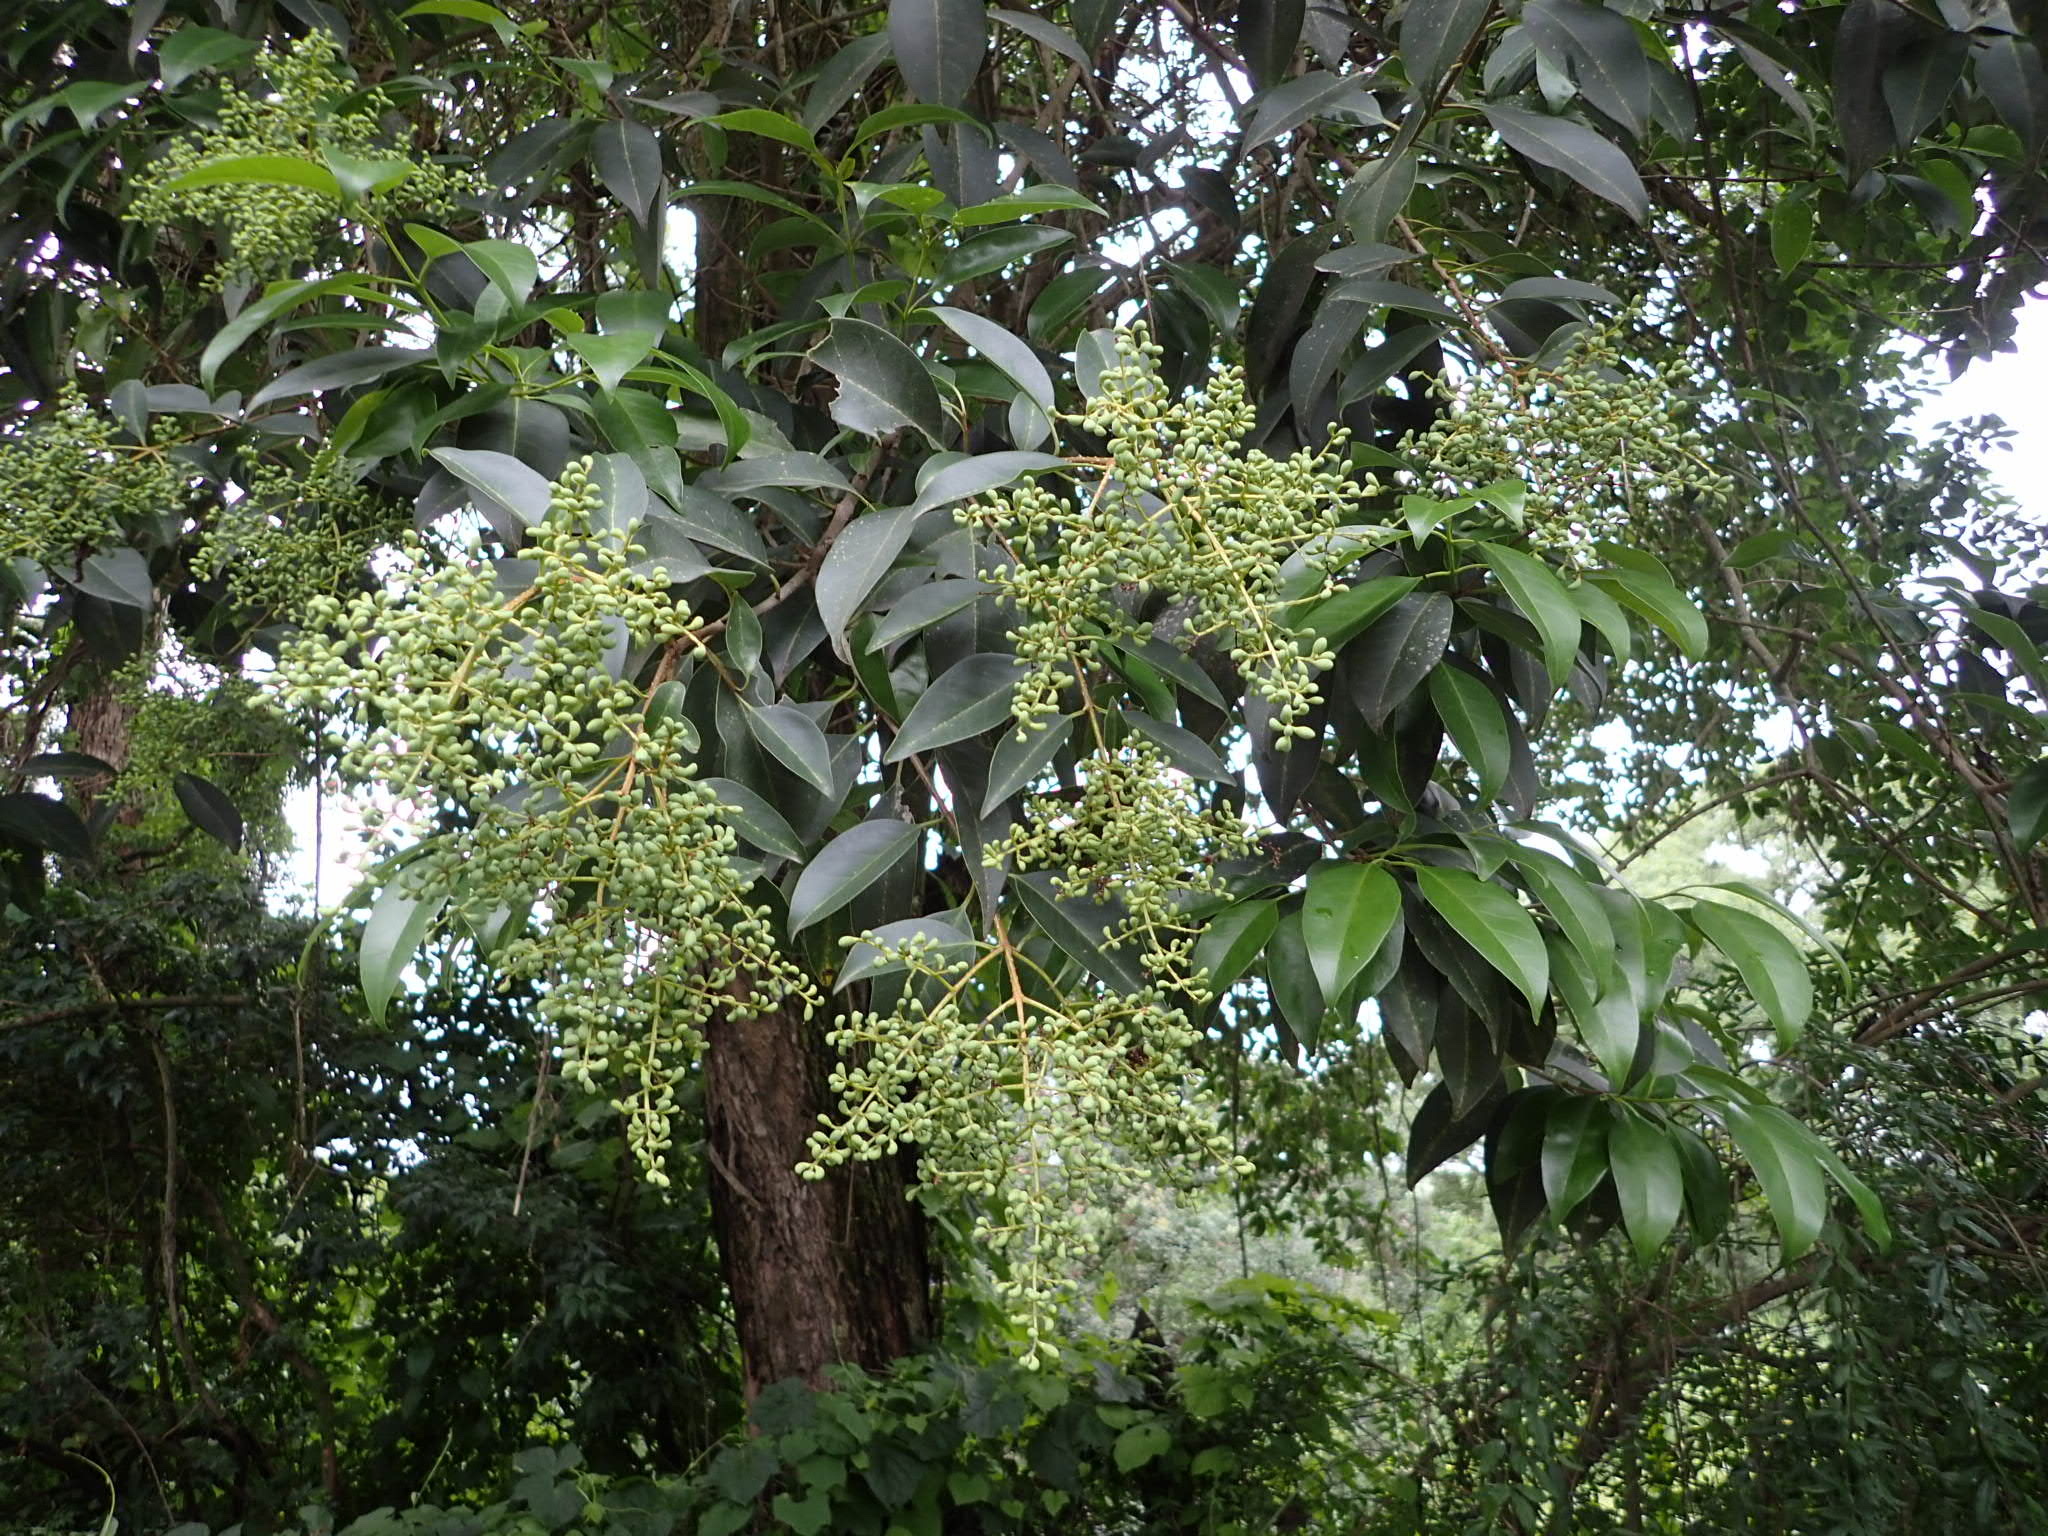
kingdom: Plantae
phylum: Tracheophyta
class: Magnoliopsida
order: Lamiales
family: Oleaceae
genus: Ligustrum
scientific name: Ligustrum lucidum
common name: Glossy privet
